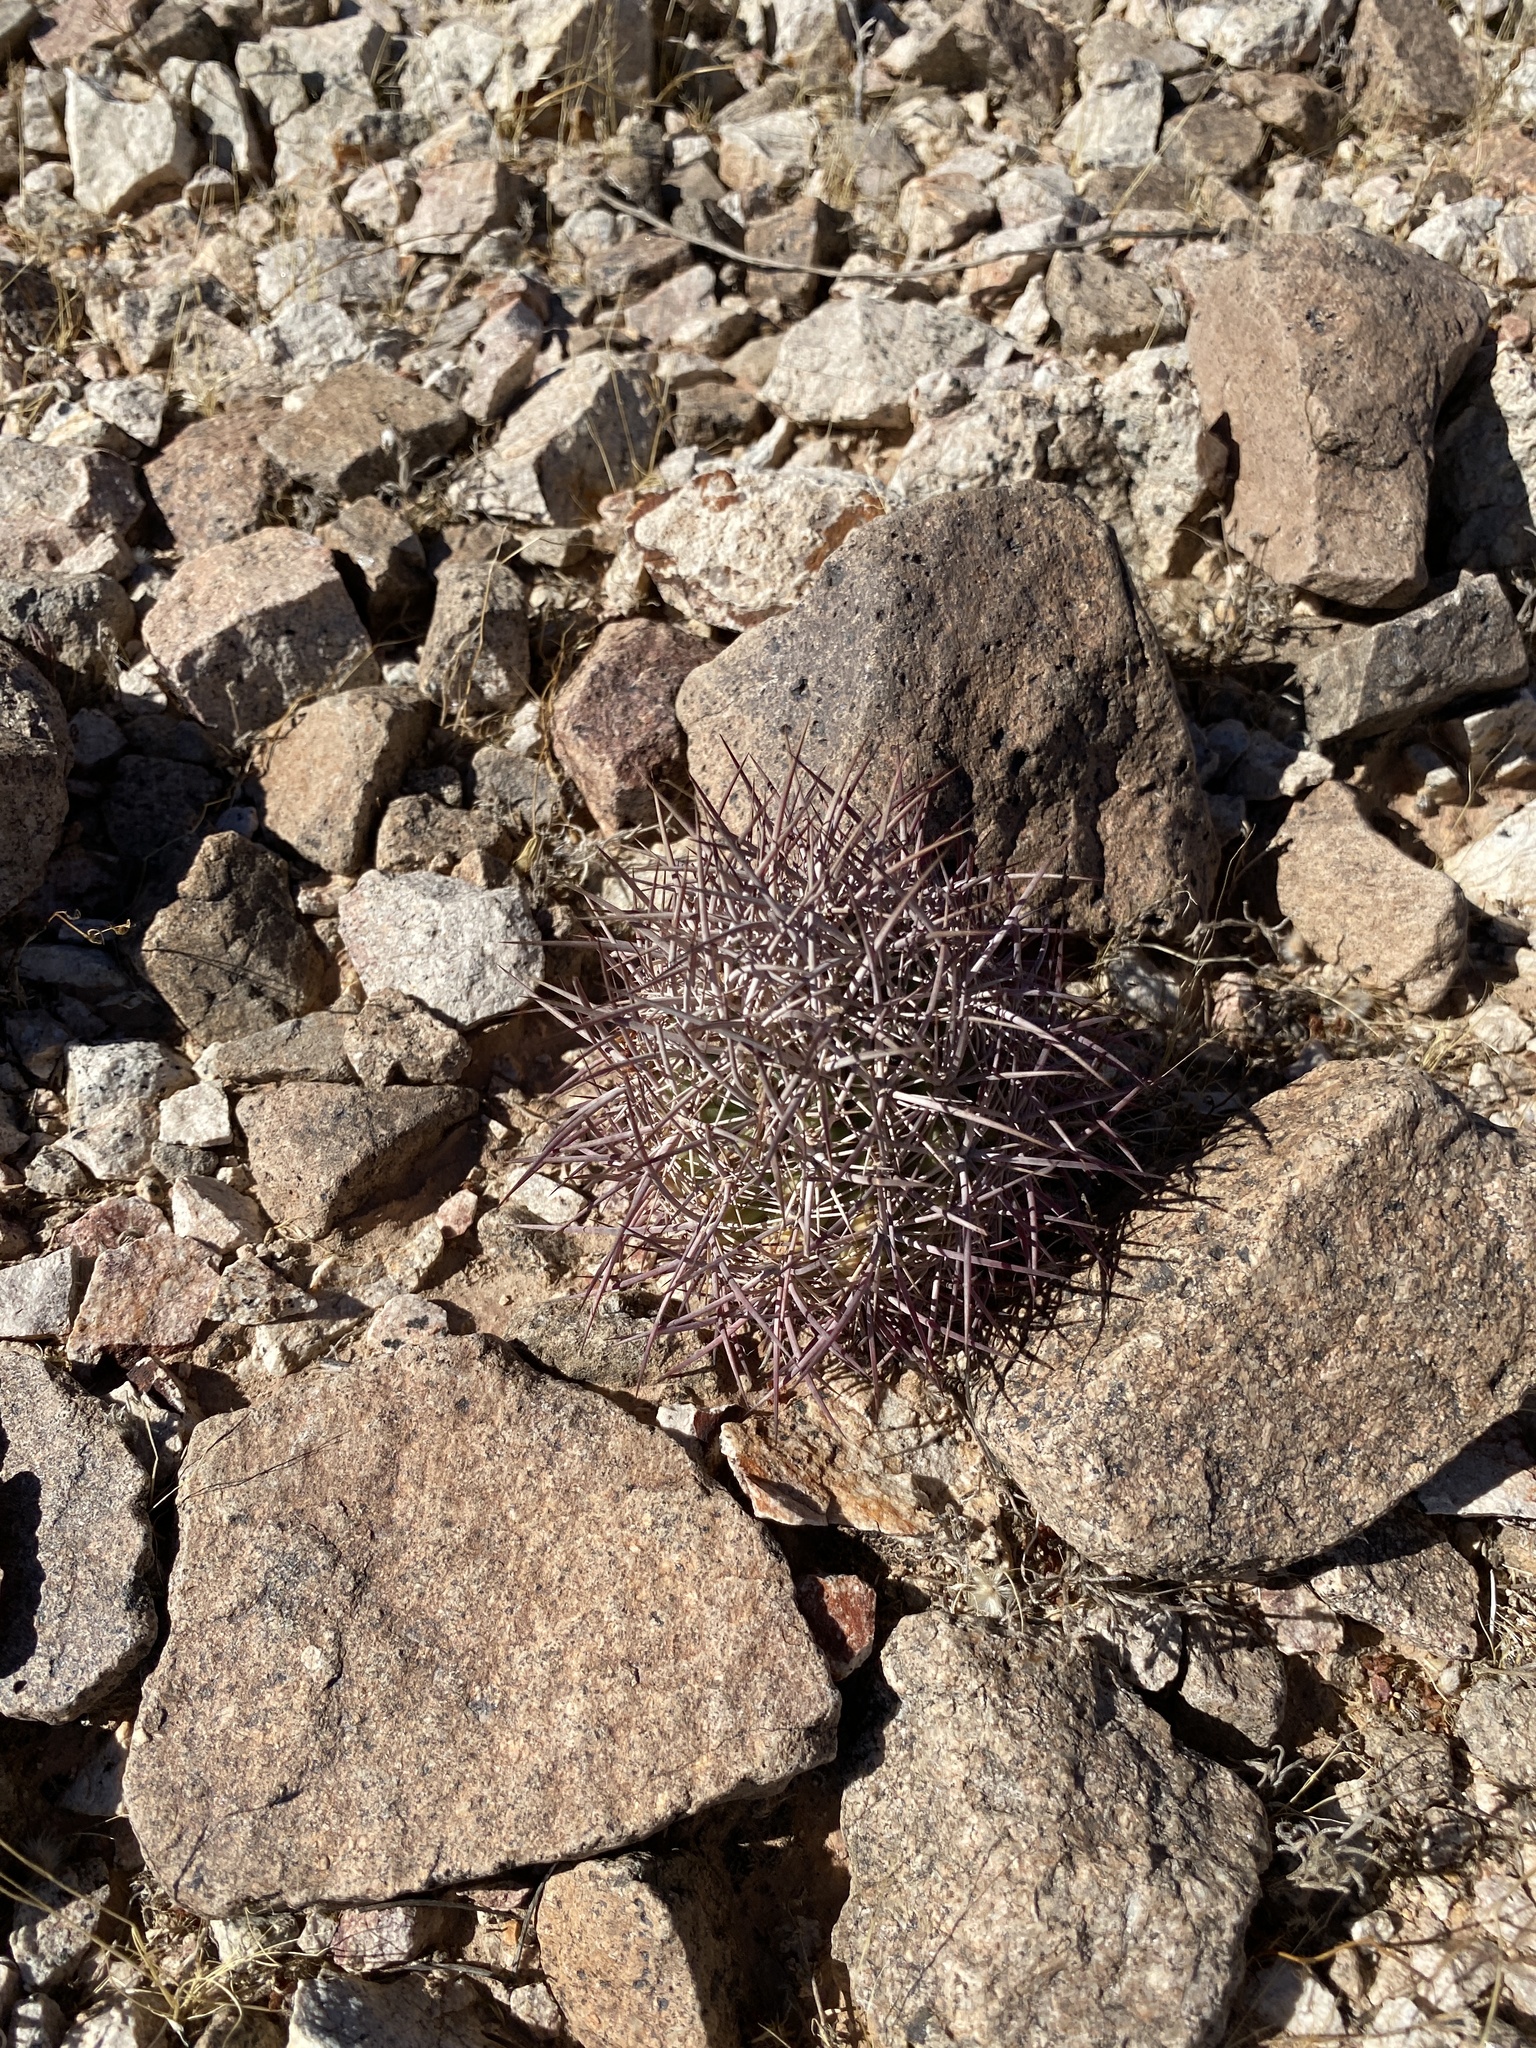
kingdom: Plantae
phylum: Tracheophyta
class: Magnoliopsida
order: Caryophyllales
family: Cactaceae
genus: Sclerocactus
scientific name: Sclerocactus johnsonii
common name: Eight-spine fishhook cactus
